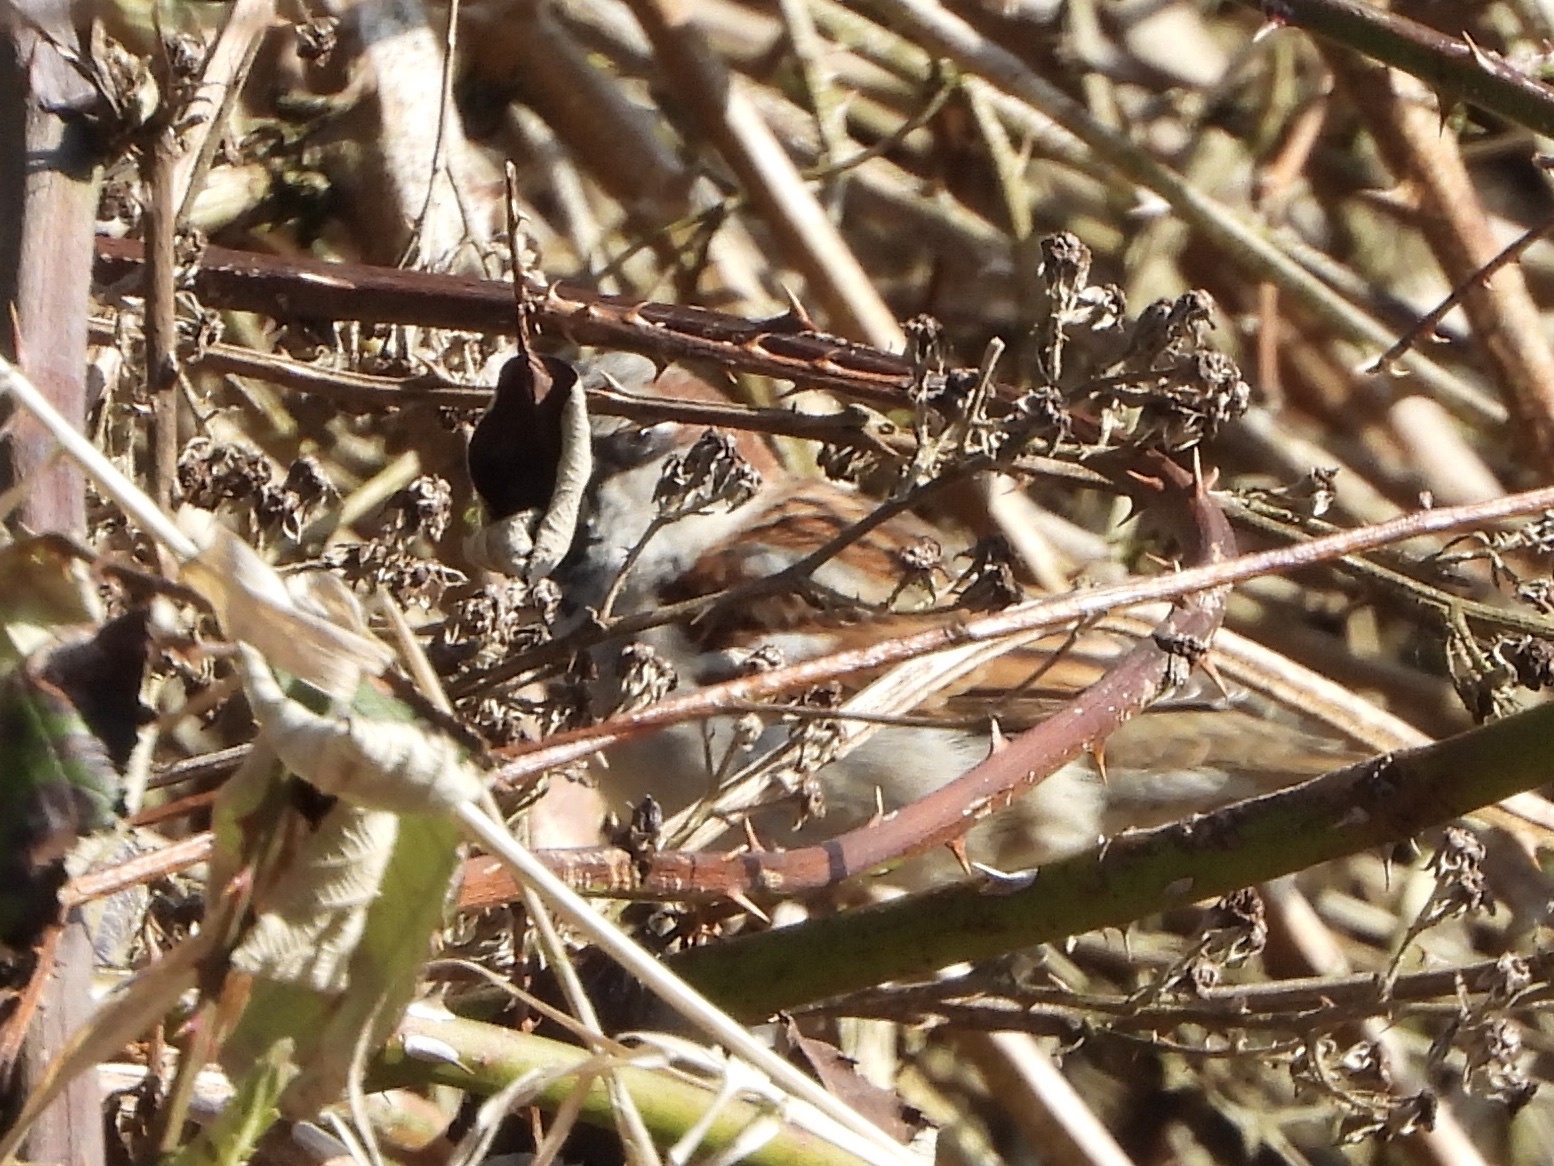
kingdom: Animalia
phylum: Chordata
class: Aves
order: Passeriformes
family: Passeridae
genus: Passer
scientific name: Passer domesticus
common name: House sparrow
